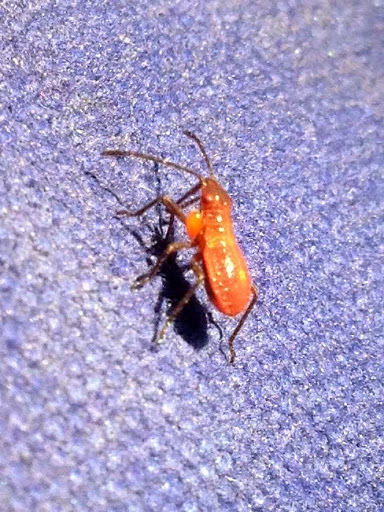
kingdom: Animalia
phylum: Arthropoda
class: Insecta
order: Hemiptera
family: Rhopalidae
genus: Boisea
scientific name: Boisea rubrolineata
